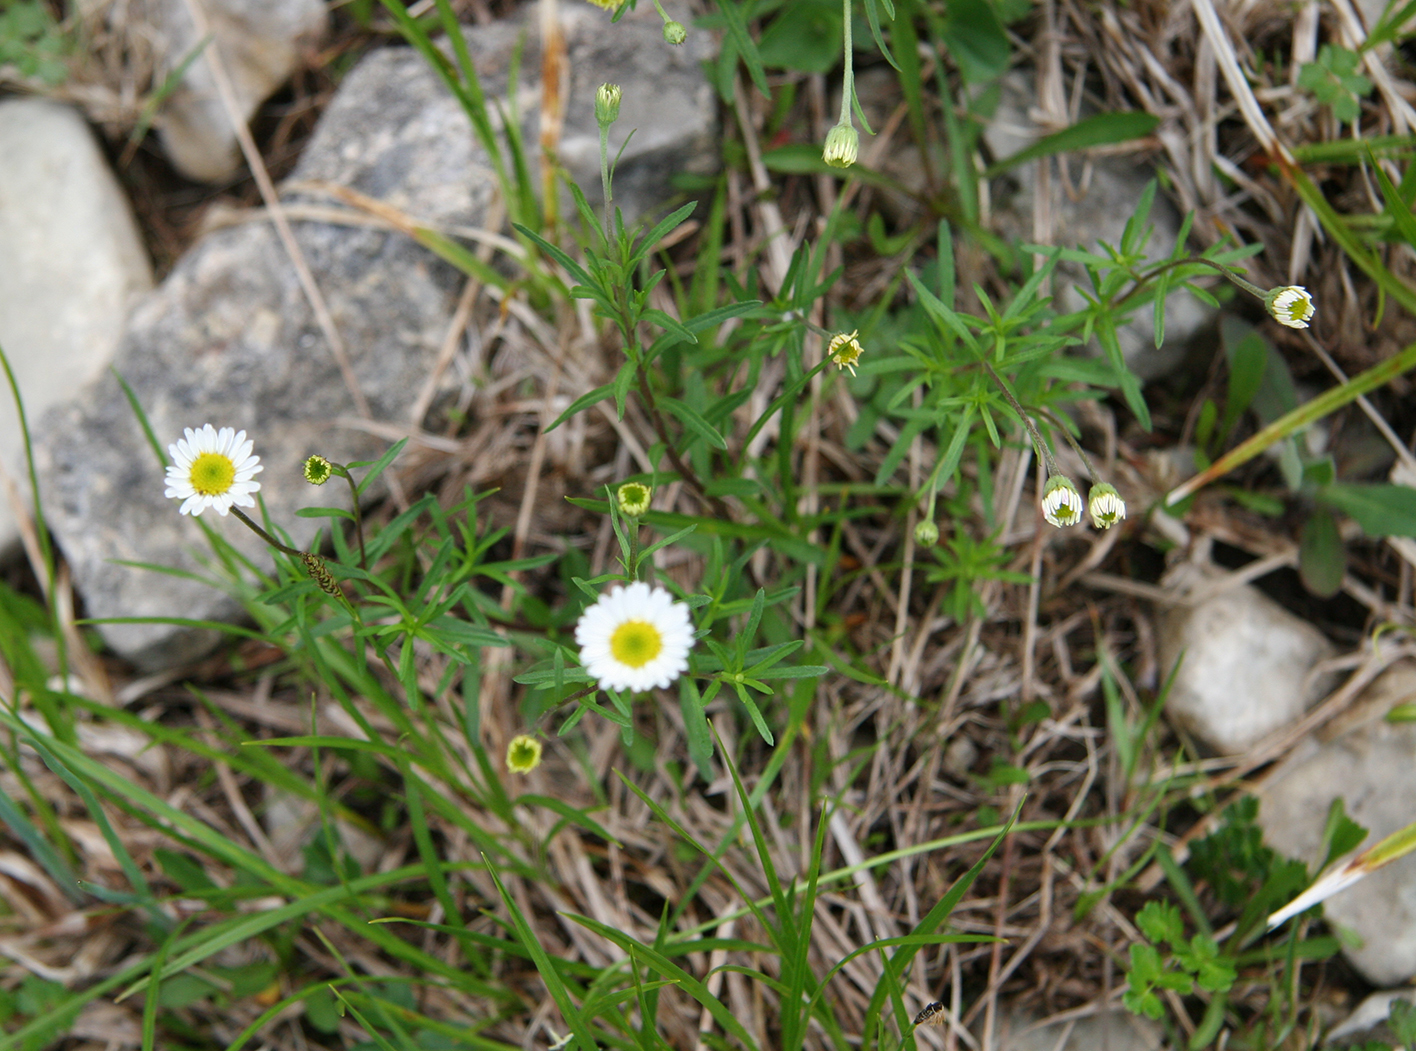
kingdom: Plantae
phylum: Tracheophyta
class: Magnoliopsida
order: Asterales
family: Asteraceae
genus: Erigeron
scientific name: Erigeron hyssopifolius
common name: Daisy fleabane
